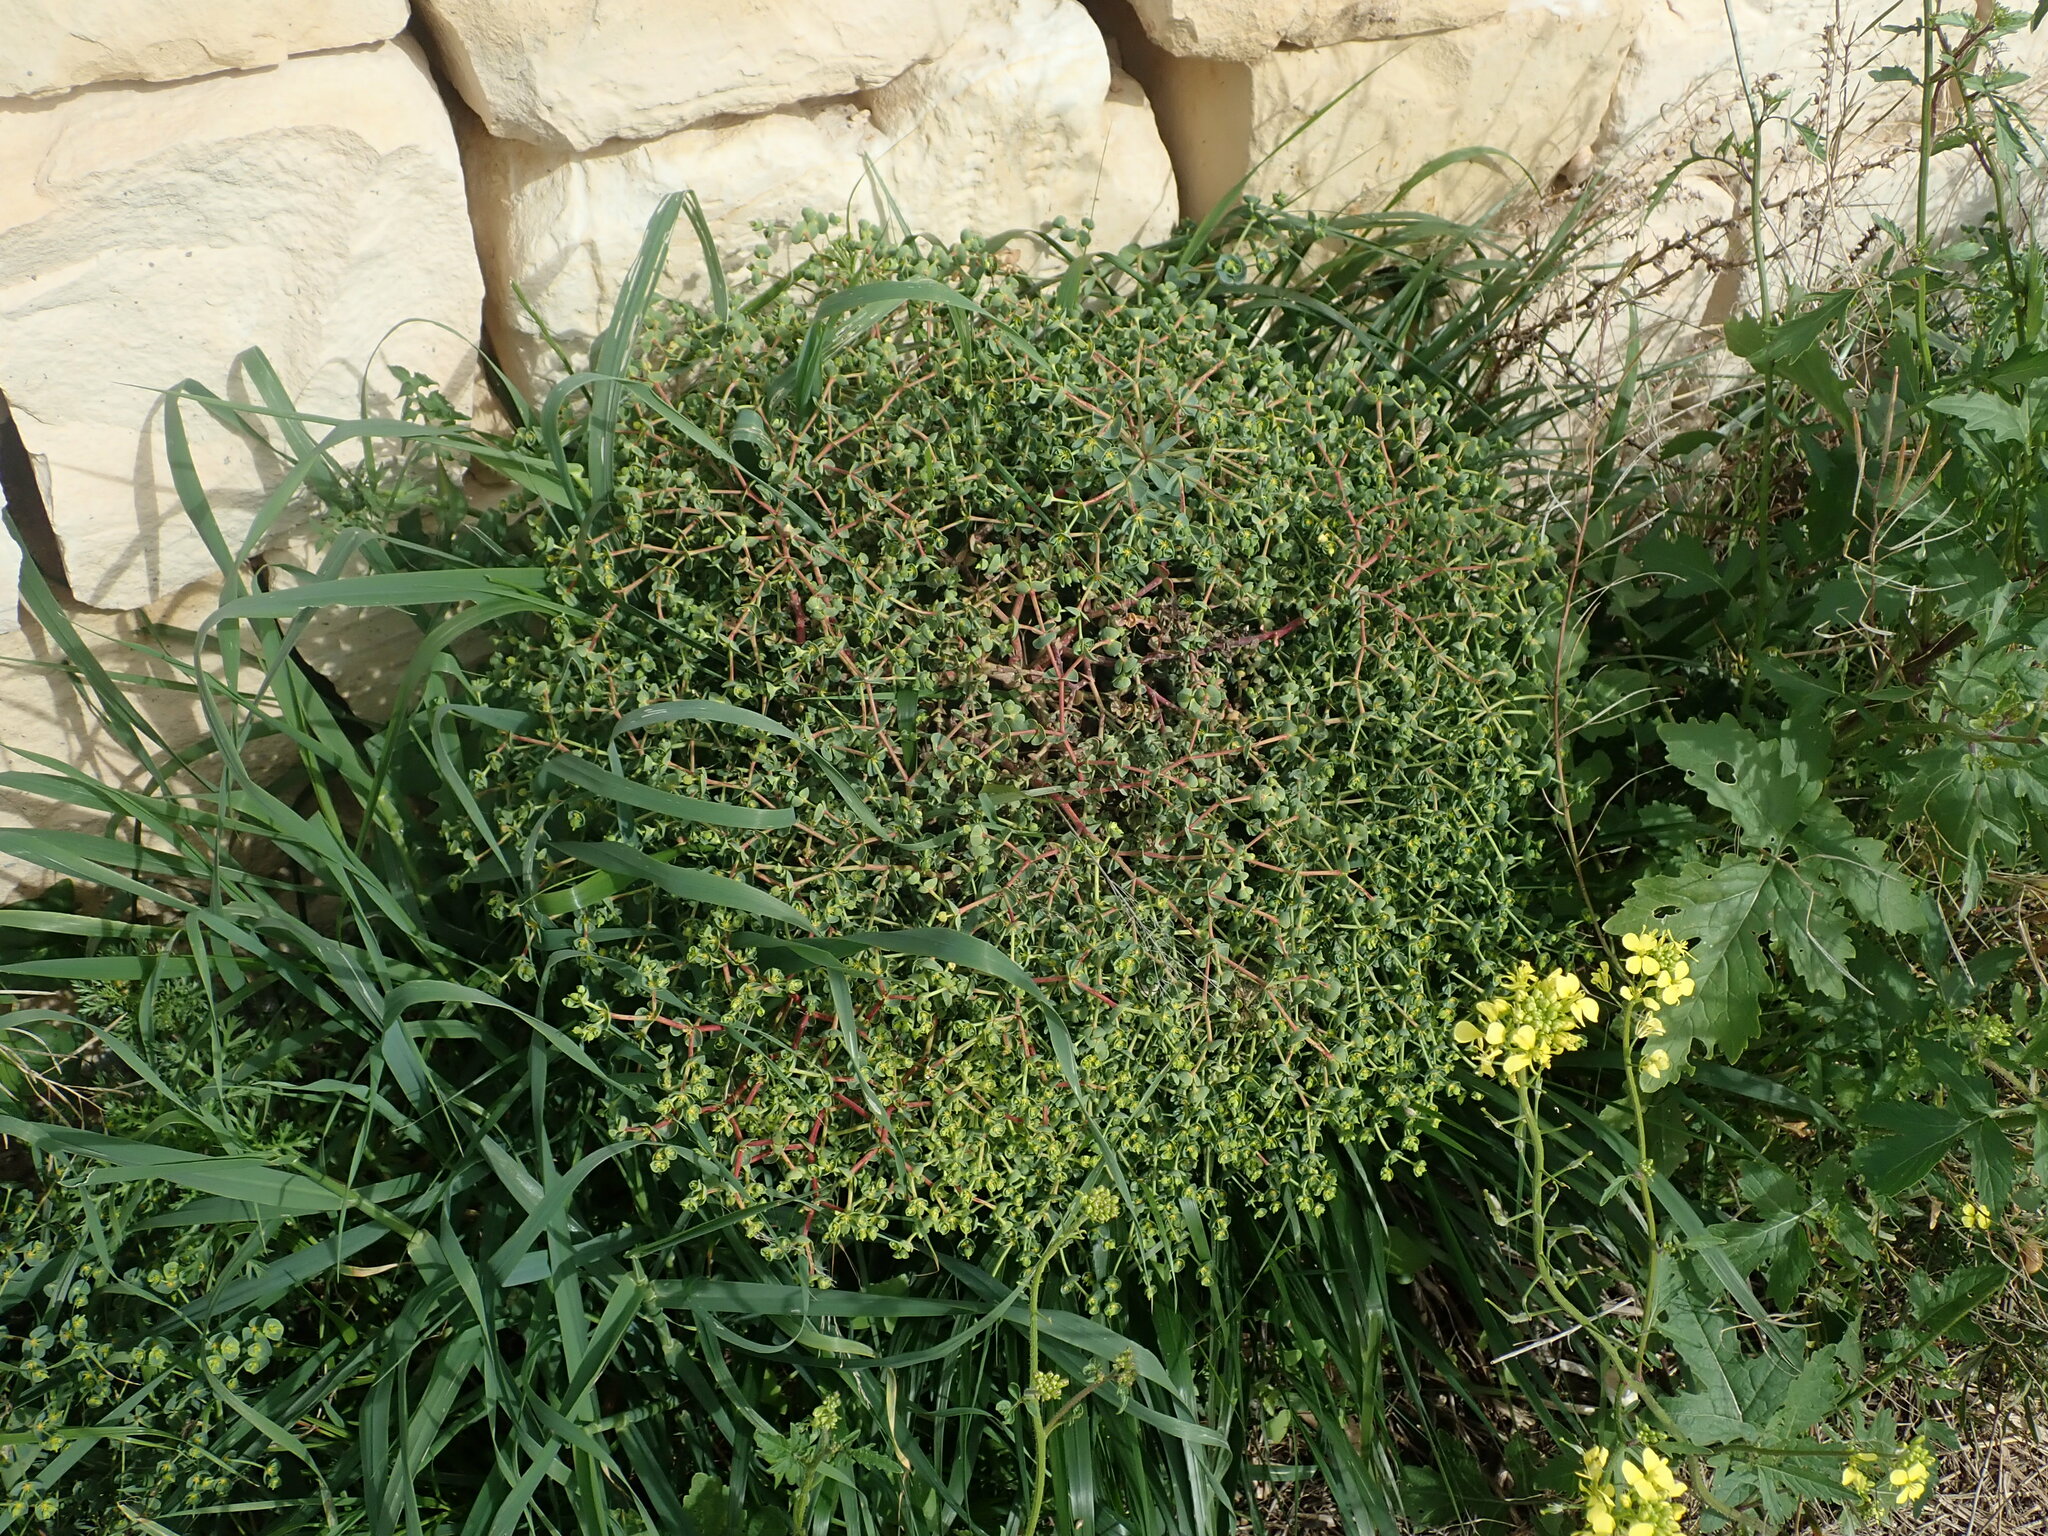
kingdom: Plantae
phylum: Tracheophyta
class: Magnoliopsida
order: Malpighiales
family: Euphorbiaceae
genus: Euphorbia
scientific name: Euphorbia segetalis
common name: Corn spurge
